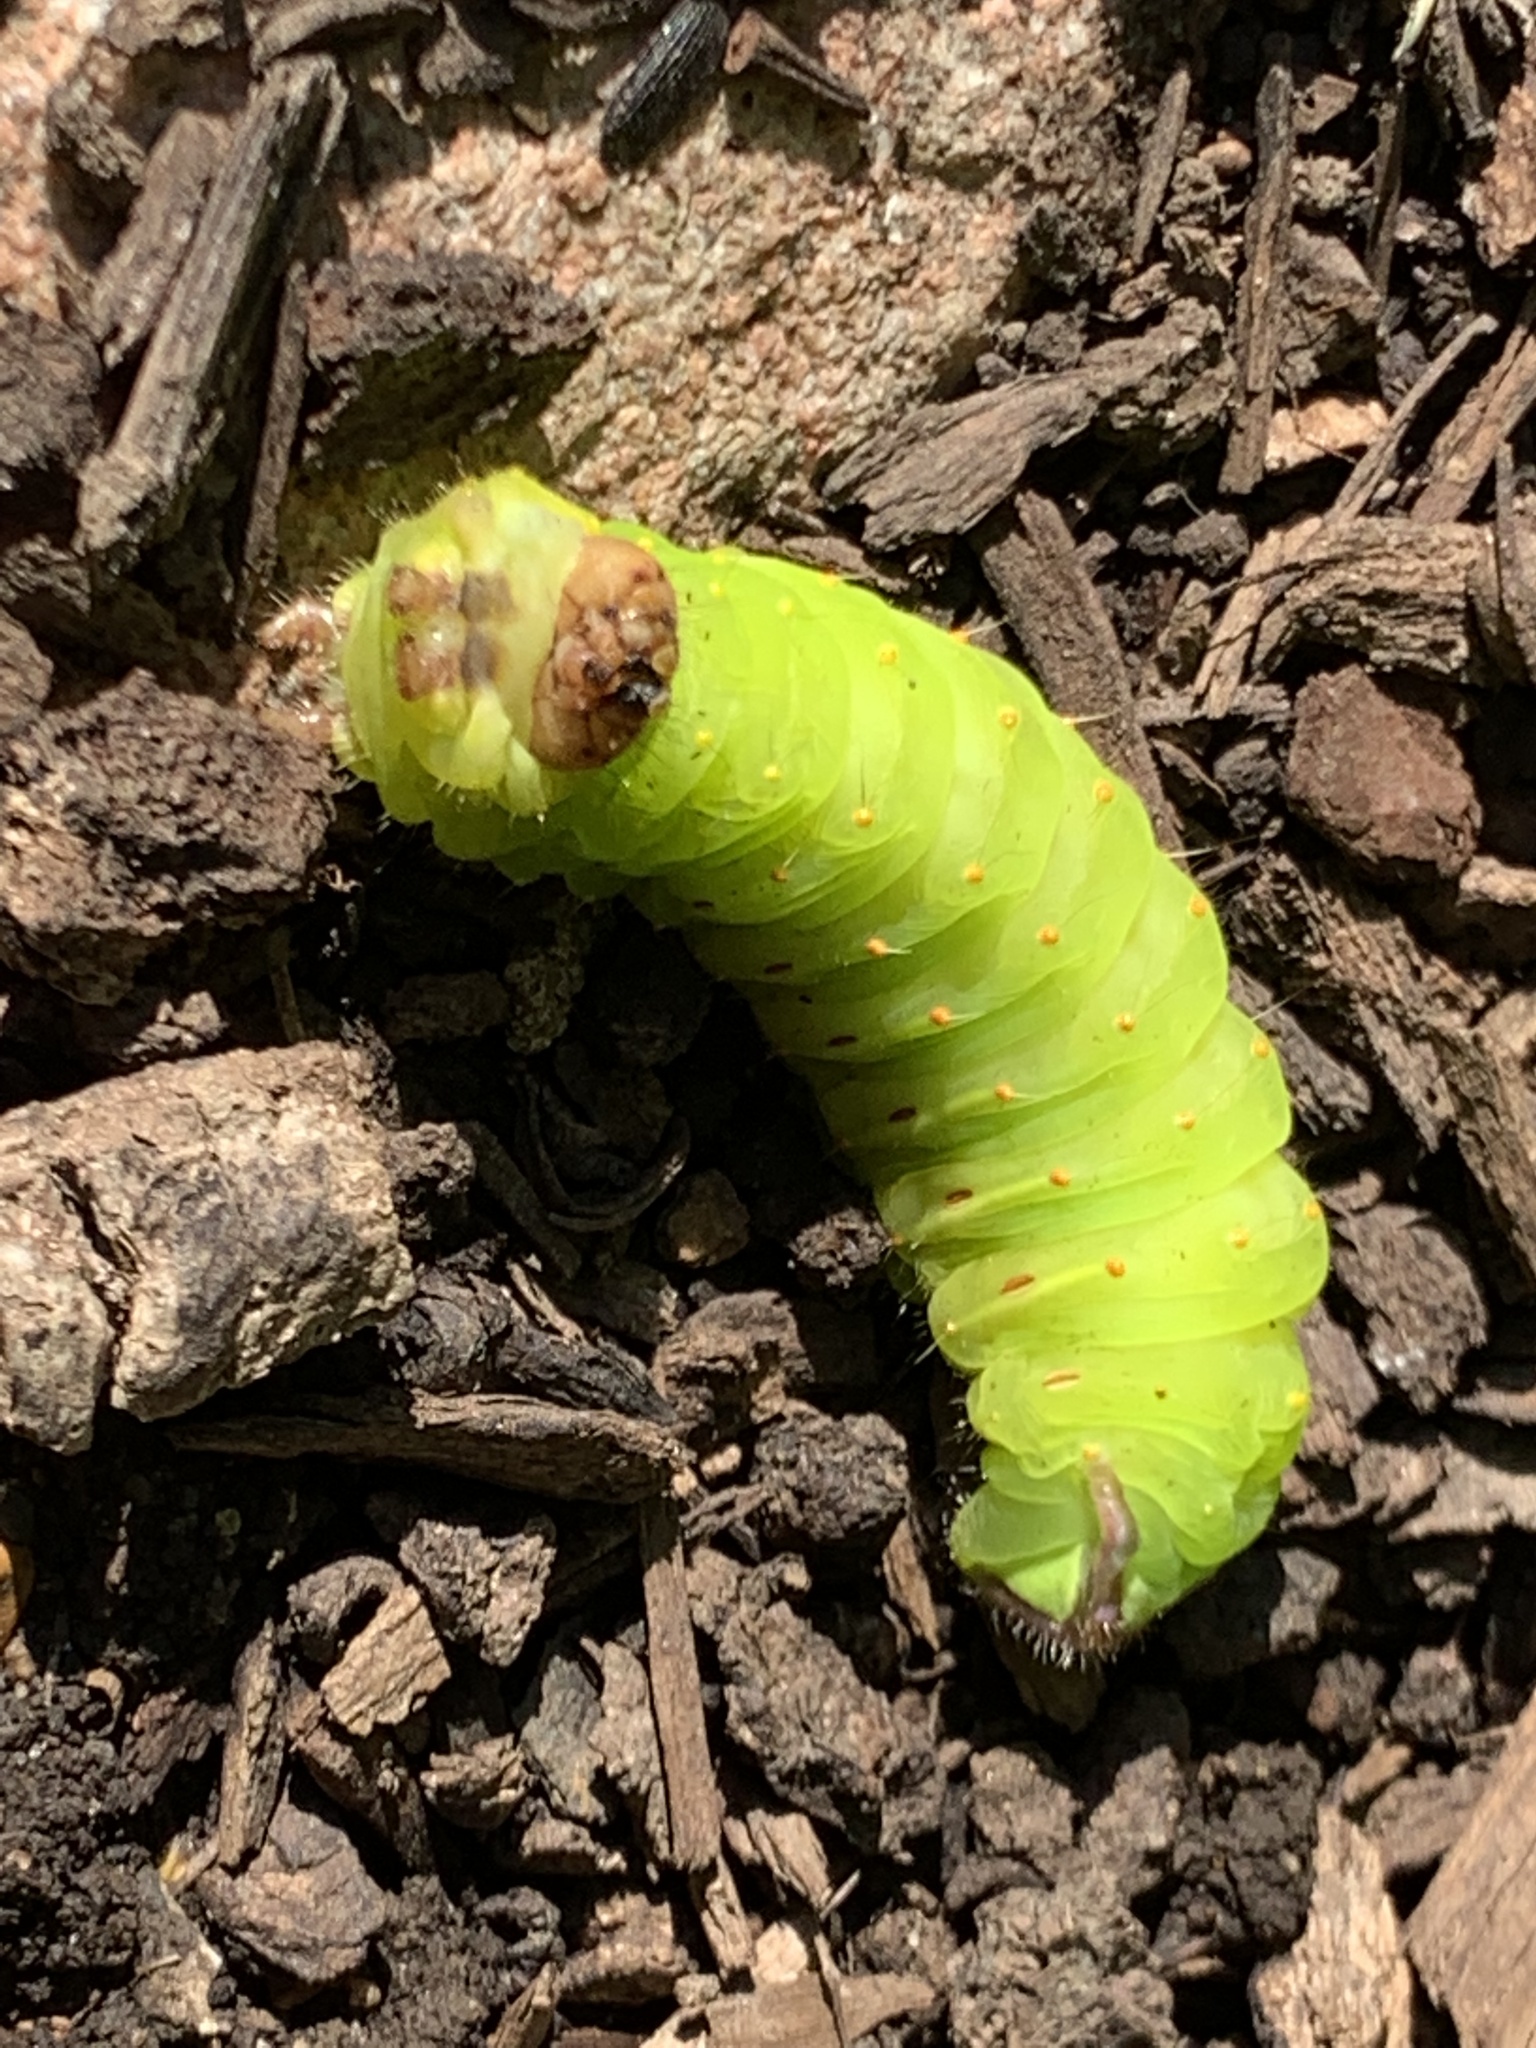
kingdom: Animalia
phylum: Arthropoda
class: Insecta
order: Lepidoptera
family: Saturniidae
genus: Antheraea
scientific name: Antheraea polyphemus
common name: Polyphemus moth
